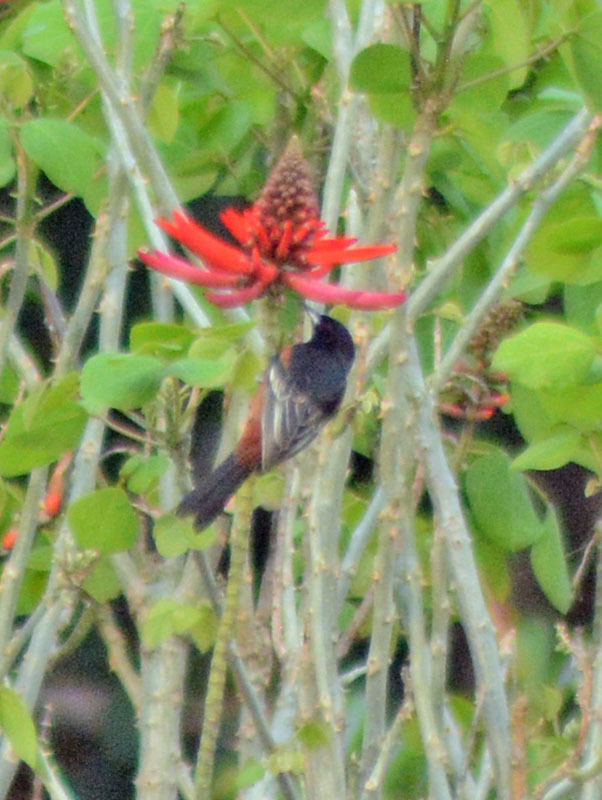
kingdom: Animalia
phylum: Chordata
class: Aves
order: Passeriformes
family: Icteridae
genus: Icterus
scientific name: Icterus spurius
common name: Orchard oriole
